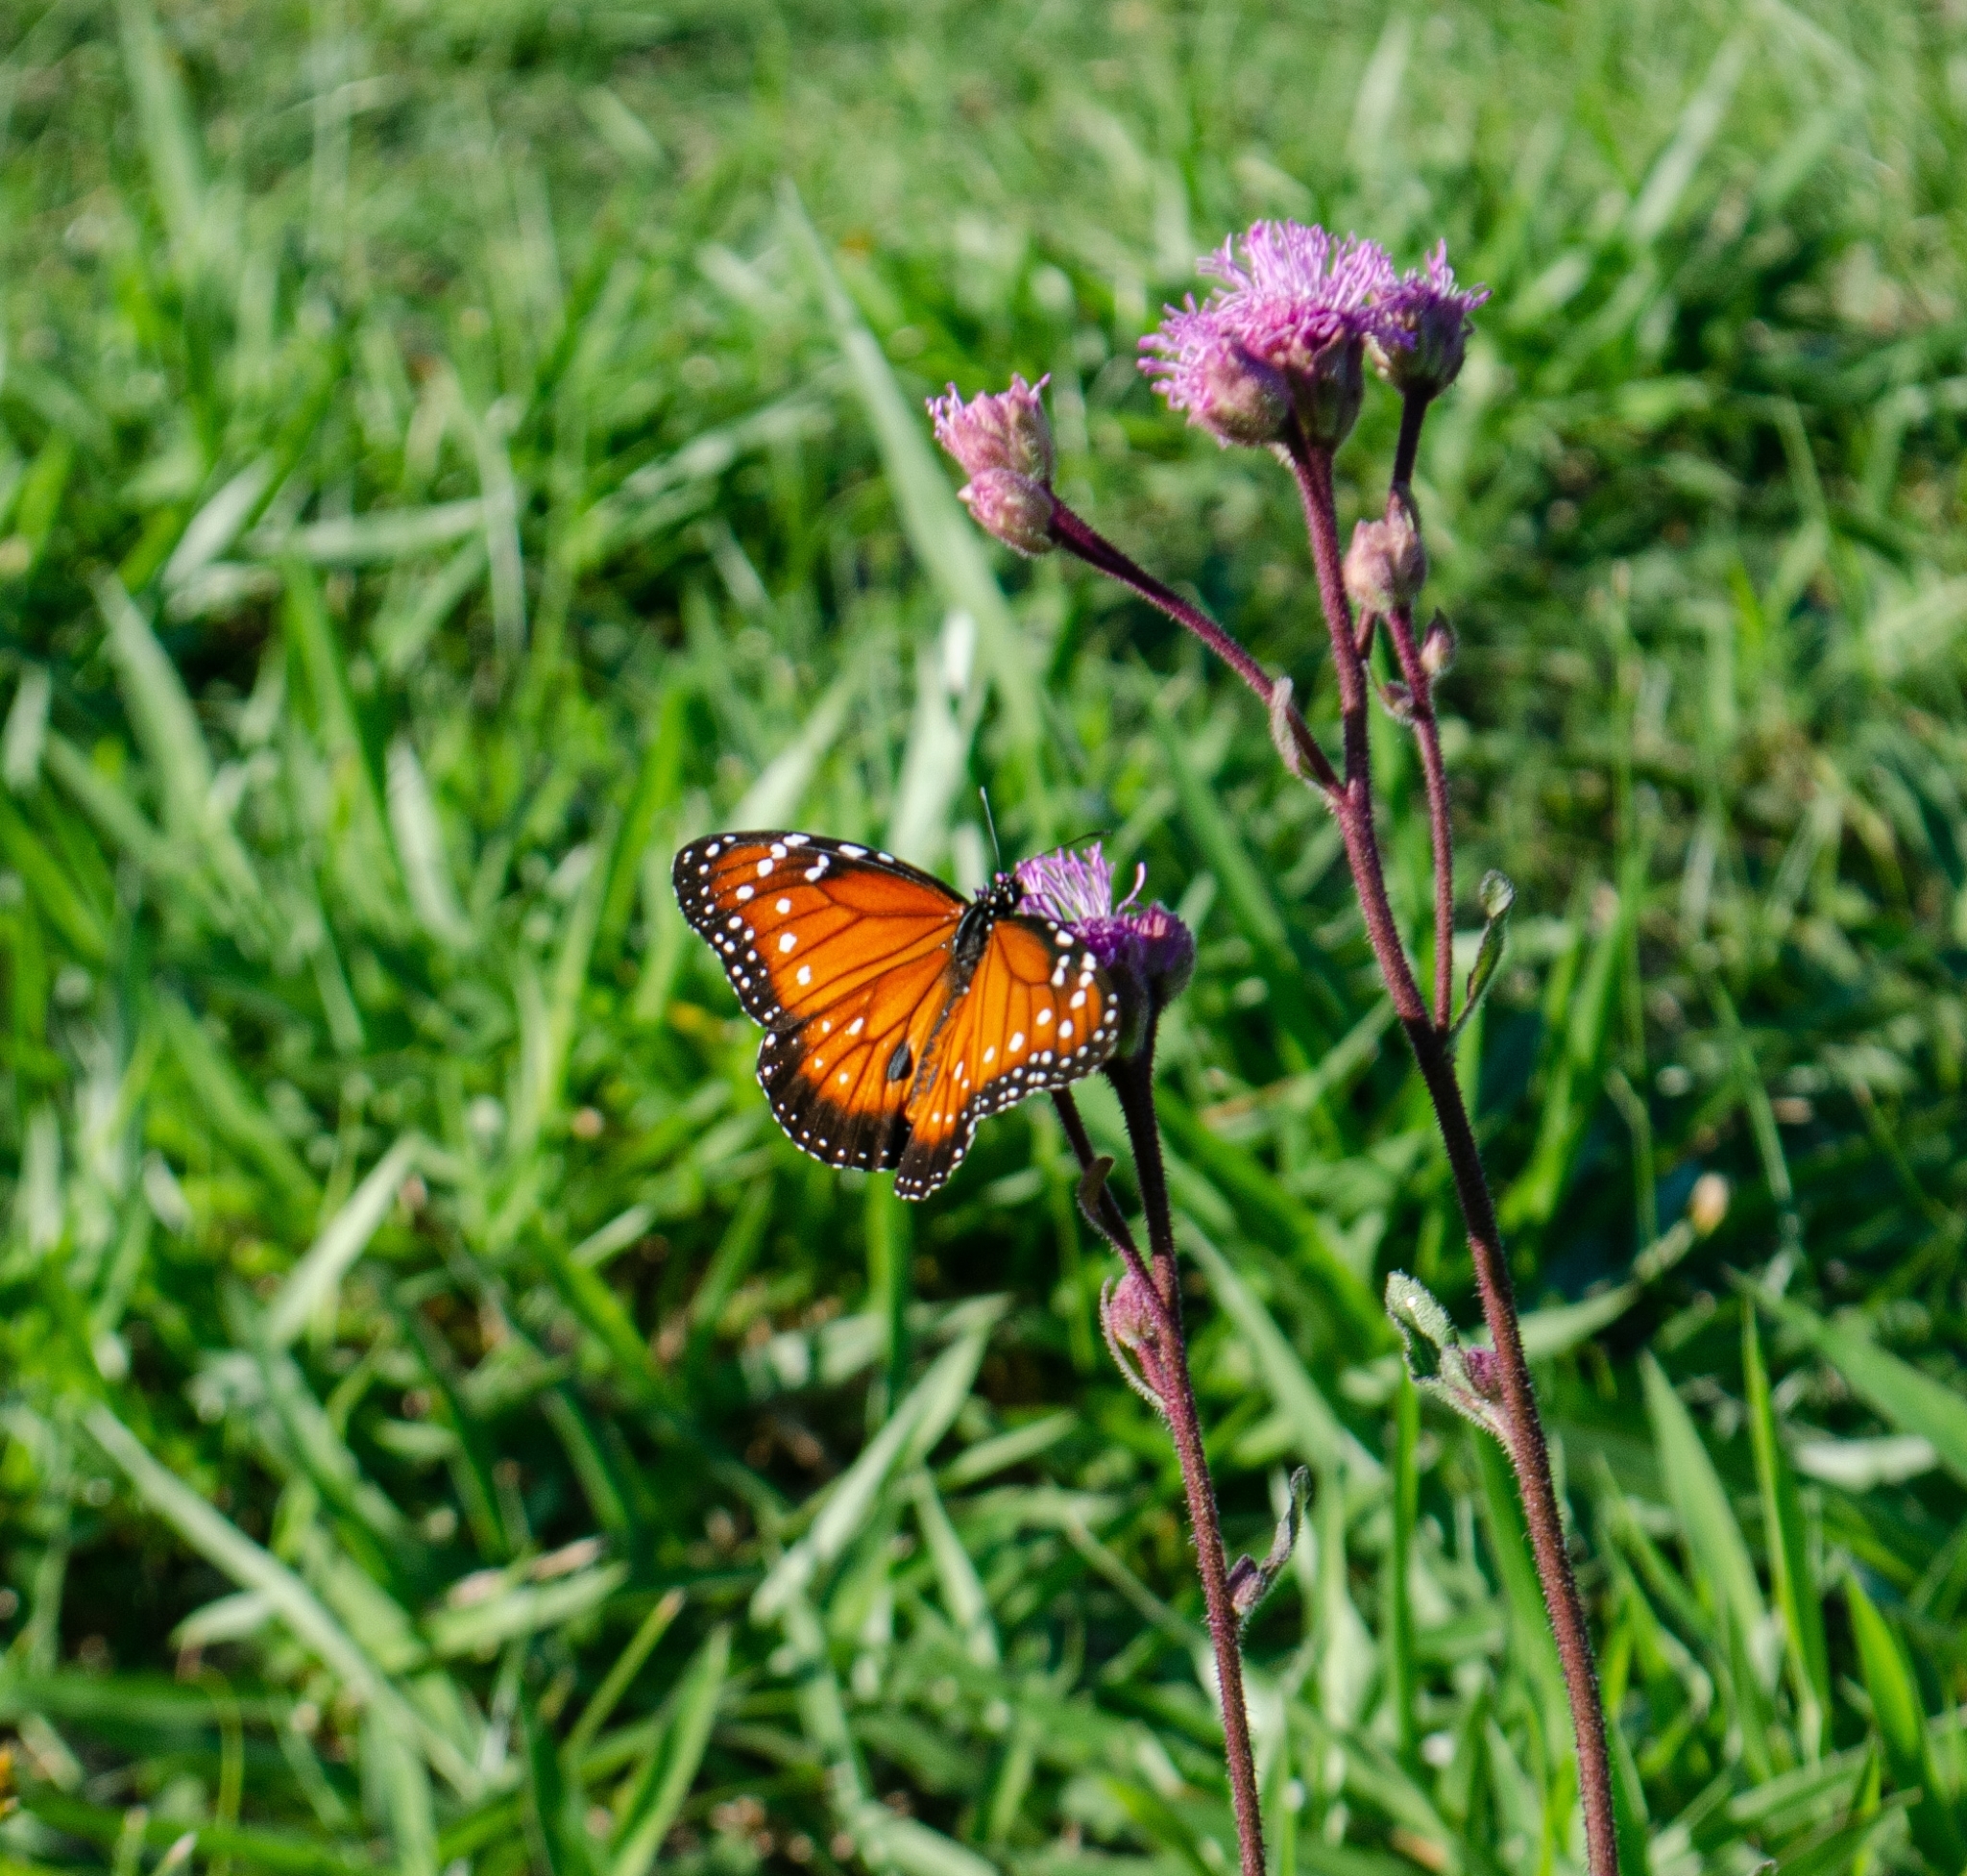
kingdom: Animalia
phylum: Arthropoda
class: Insecta
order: Lepidoptera
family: Nymphalidae
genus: Danaus
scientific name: Danaus eresimus
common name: Soldier
